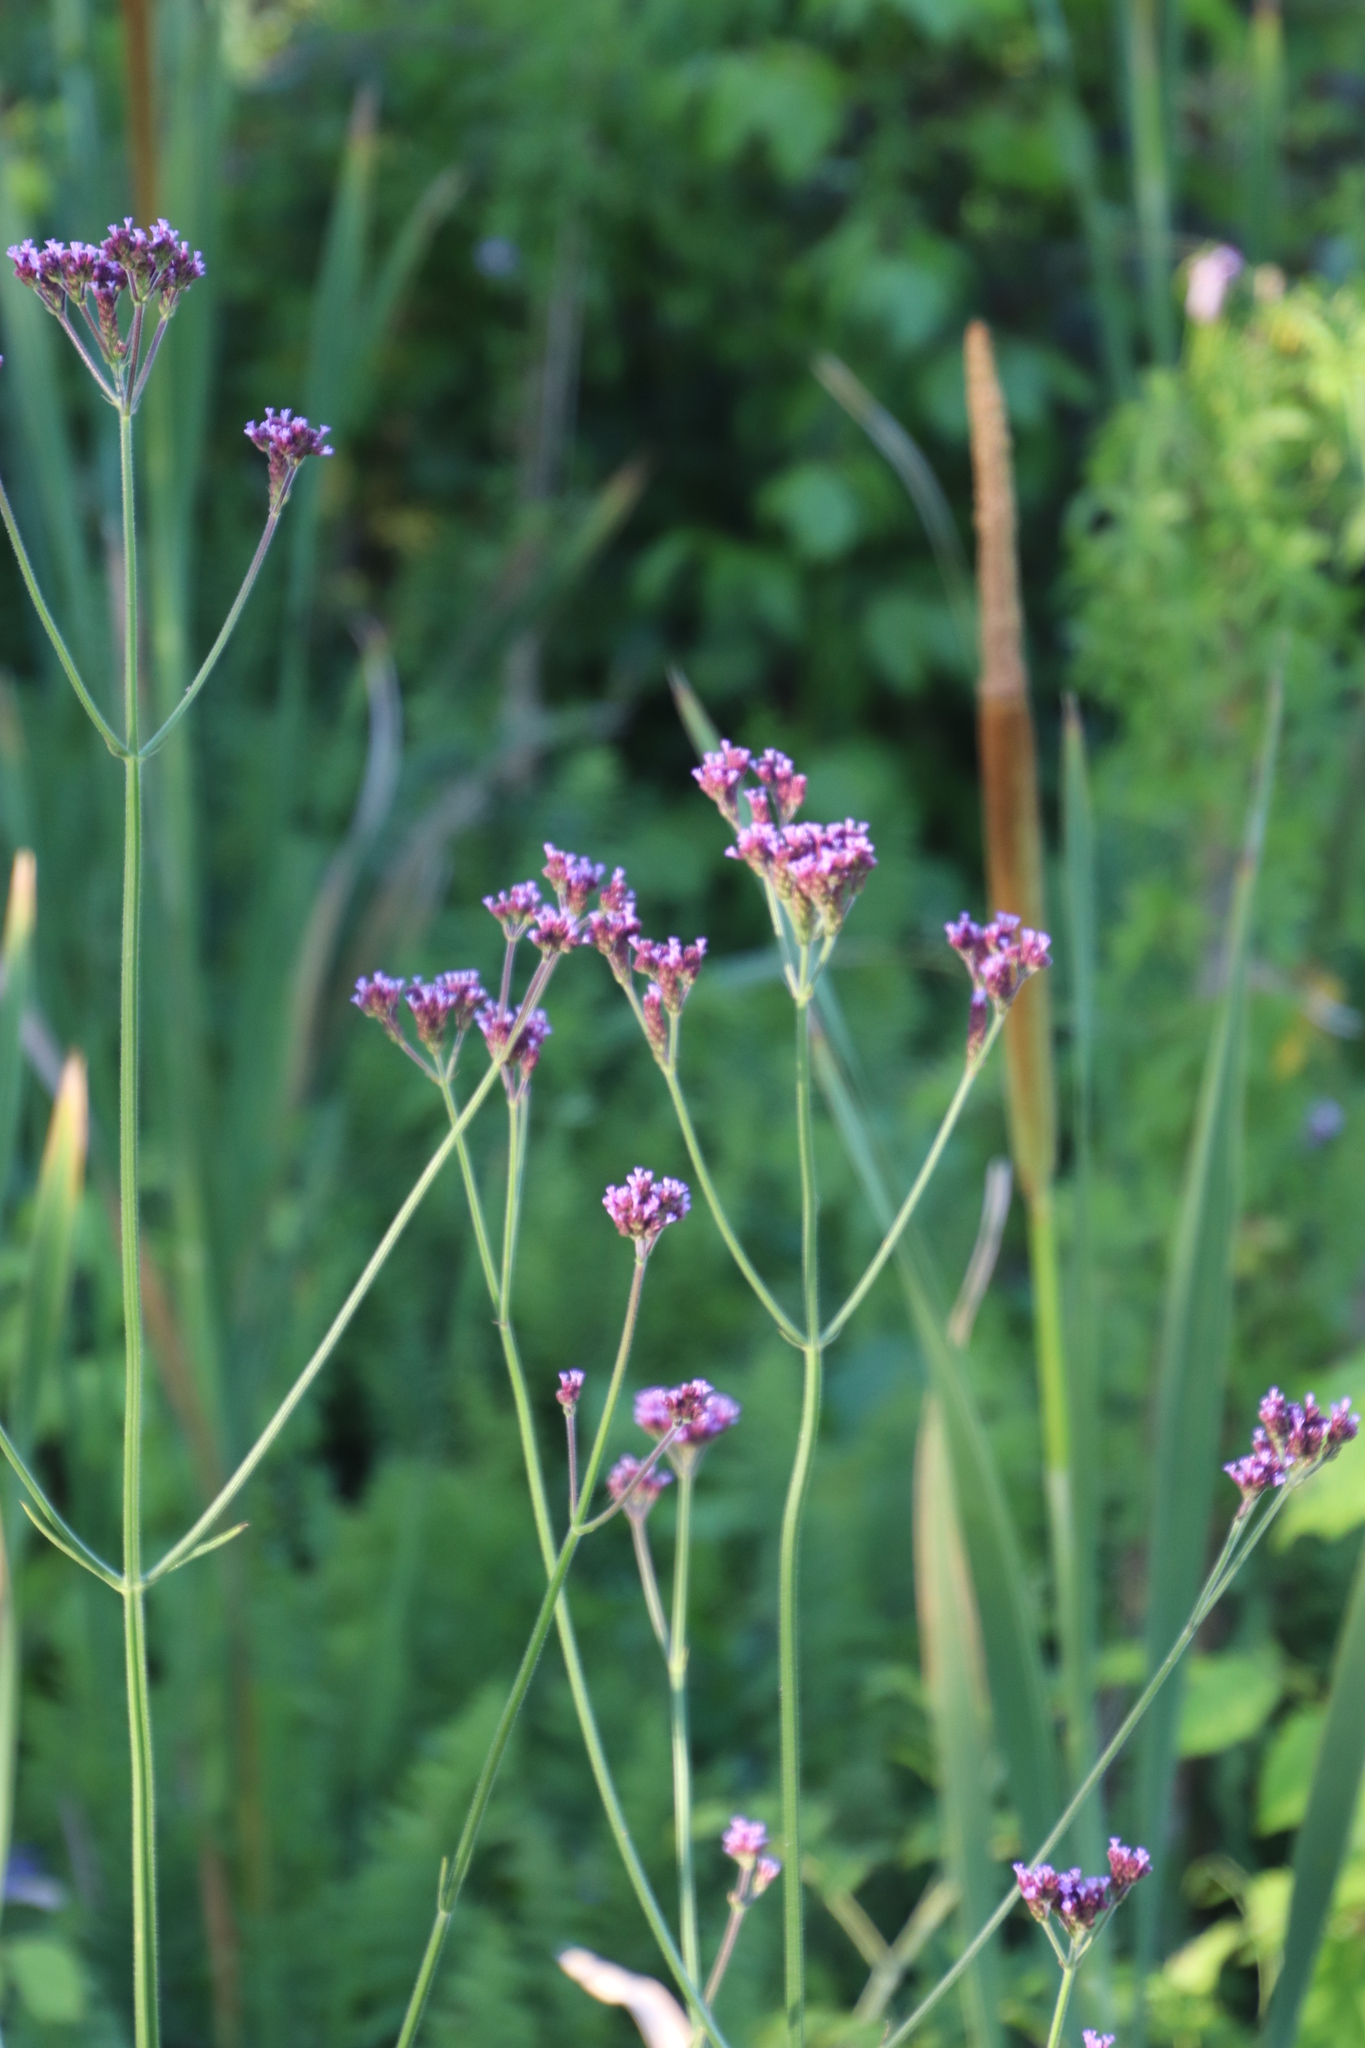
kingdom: Plantae
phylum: Tracheophyta
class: Magnoliopsida
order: Lamiales
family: Verbenaceae
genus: Verbena
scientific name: Verbena bonariensis
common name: Purpletop vervain
